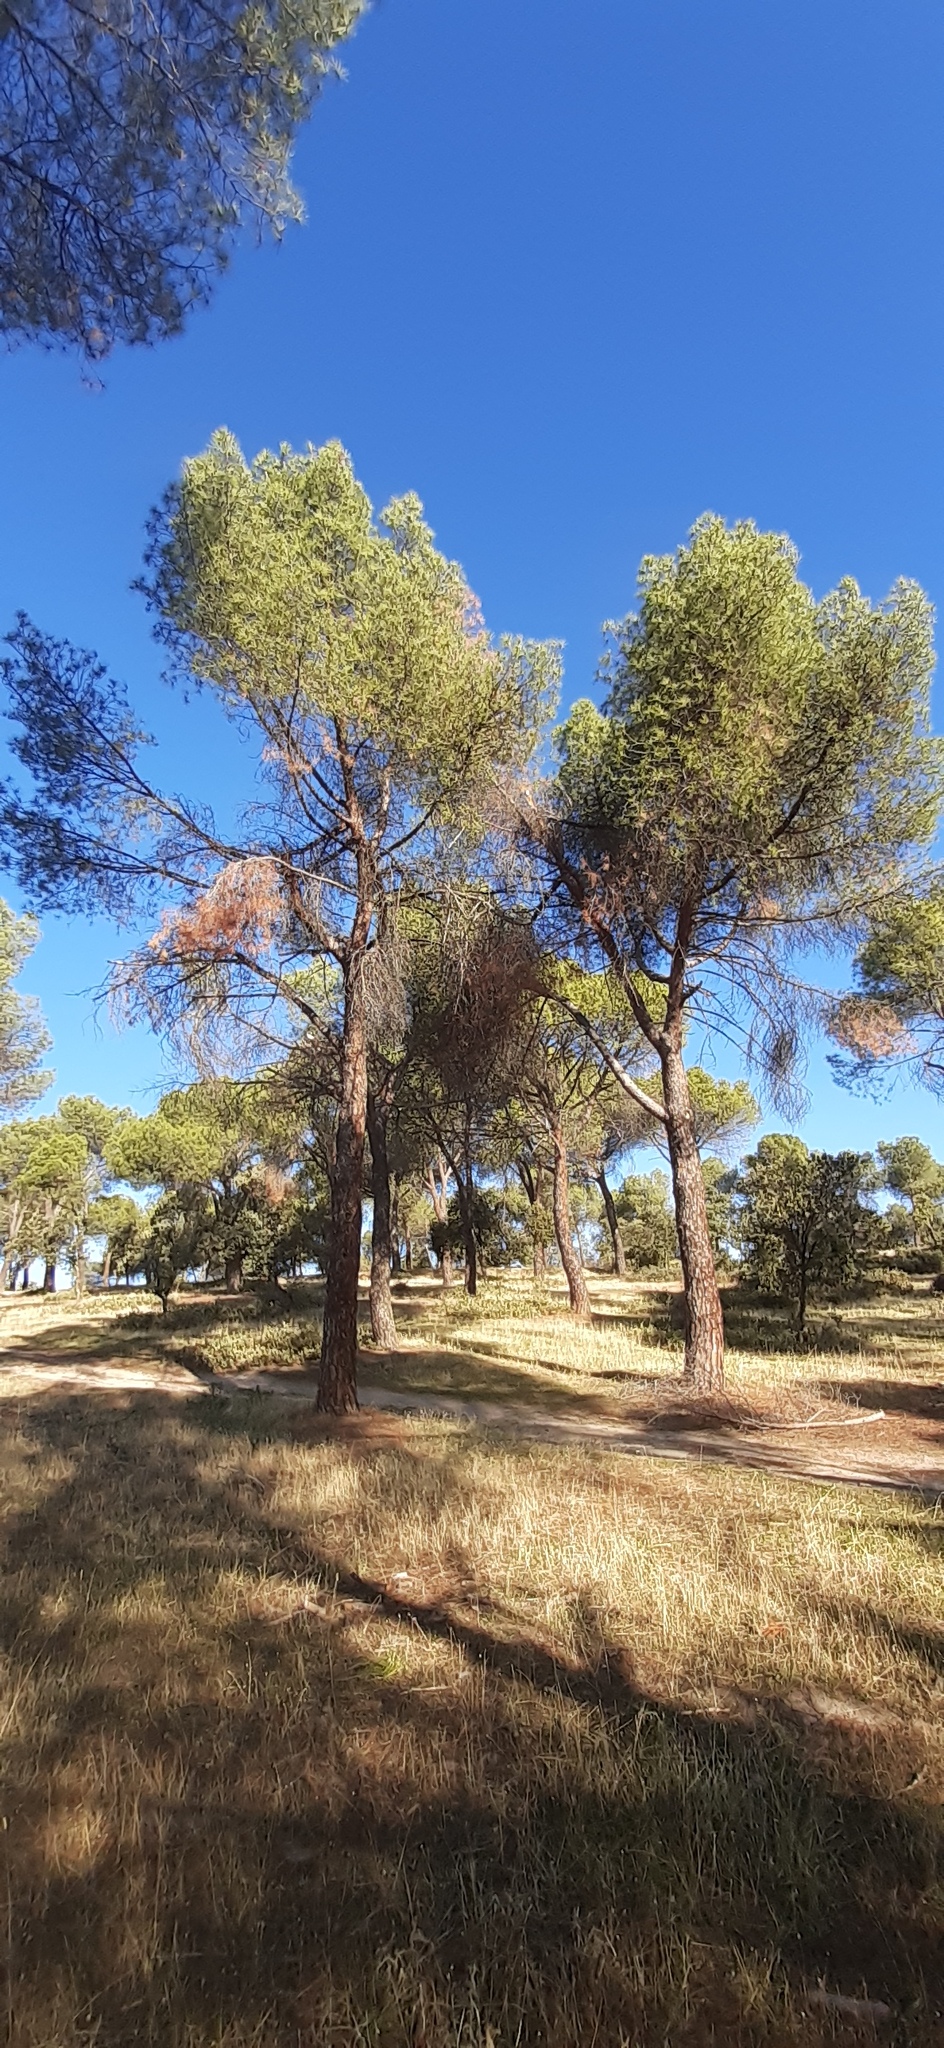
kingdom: Plantae
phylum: Tracheophyta
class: Pinopsida
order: Pinales
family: Pinaceae
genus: Pinus
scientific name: Pinus pinea
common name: Italian stone pine
